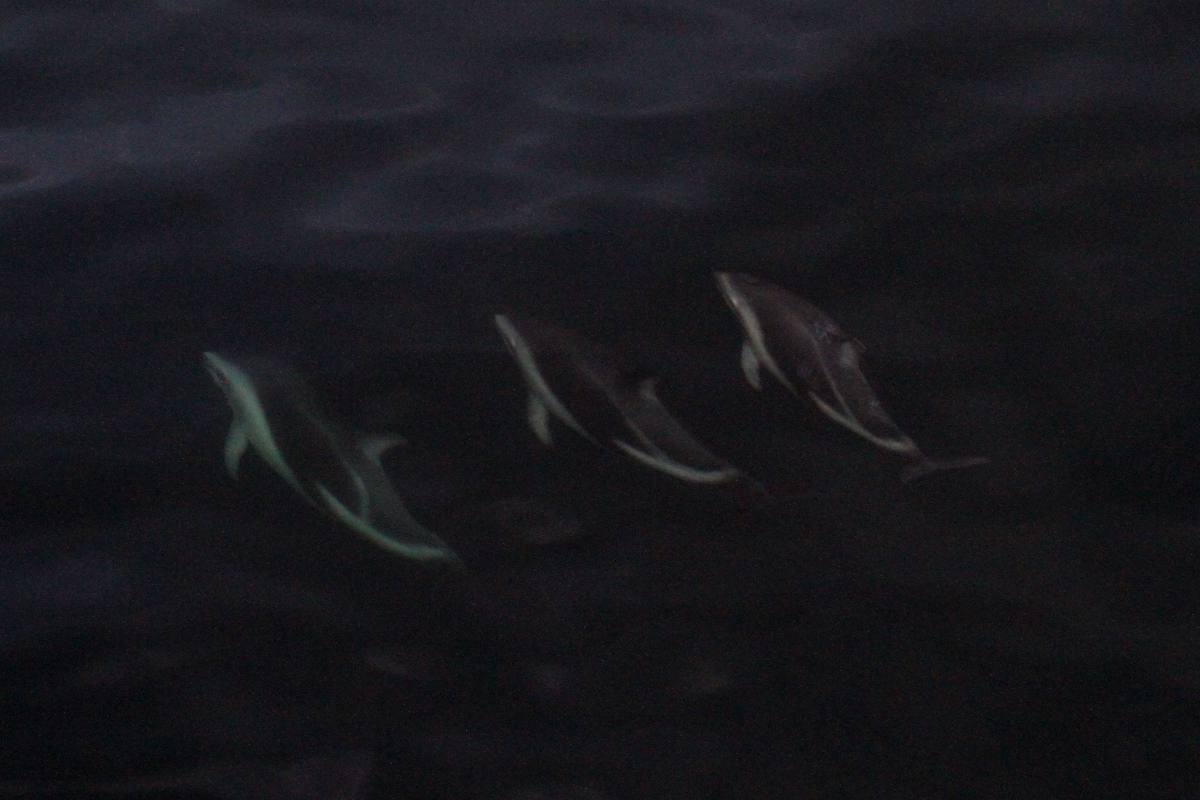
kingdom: Animalia
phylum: Chordata
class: Mammalia
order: Cetacea
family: Delphinidae
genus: Lagenorhynchus
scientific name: Lagenorhynchus obscurus
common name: Dusky dolphin
